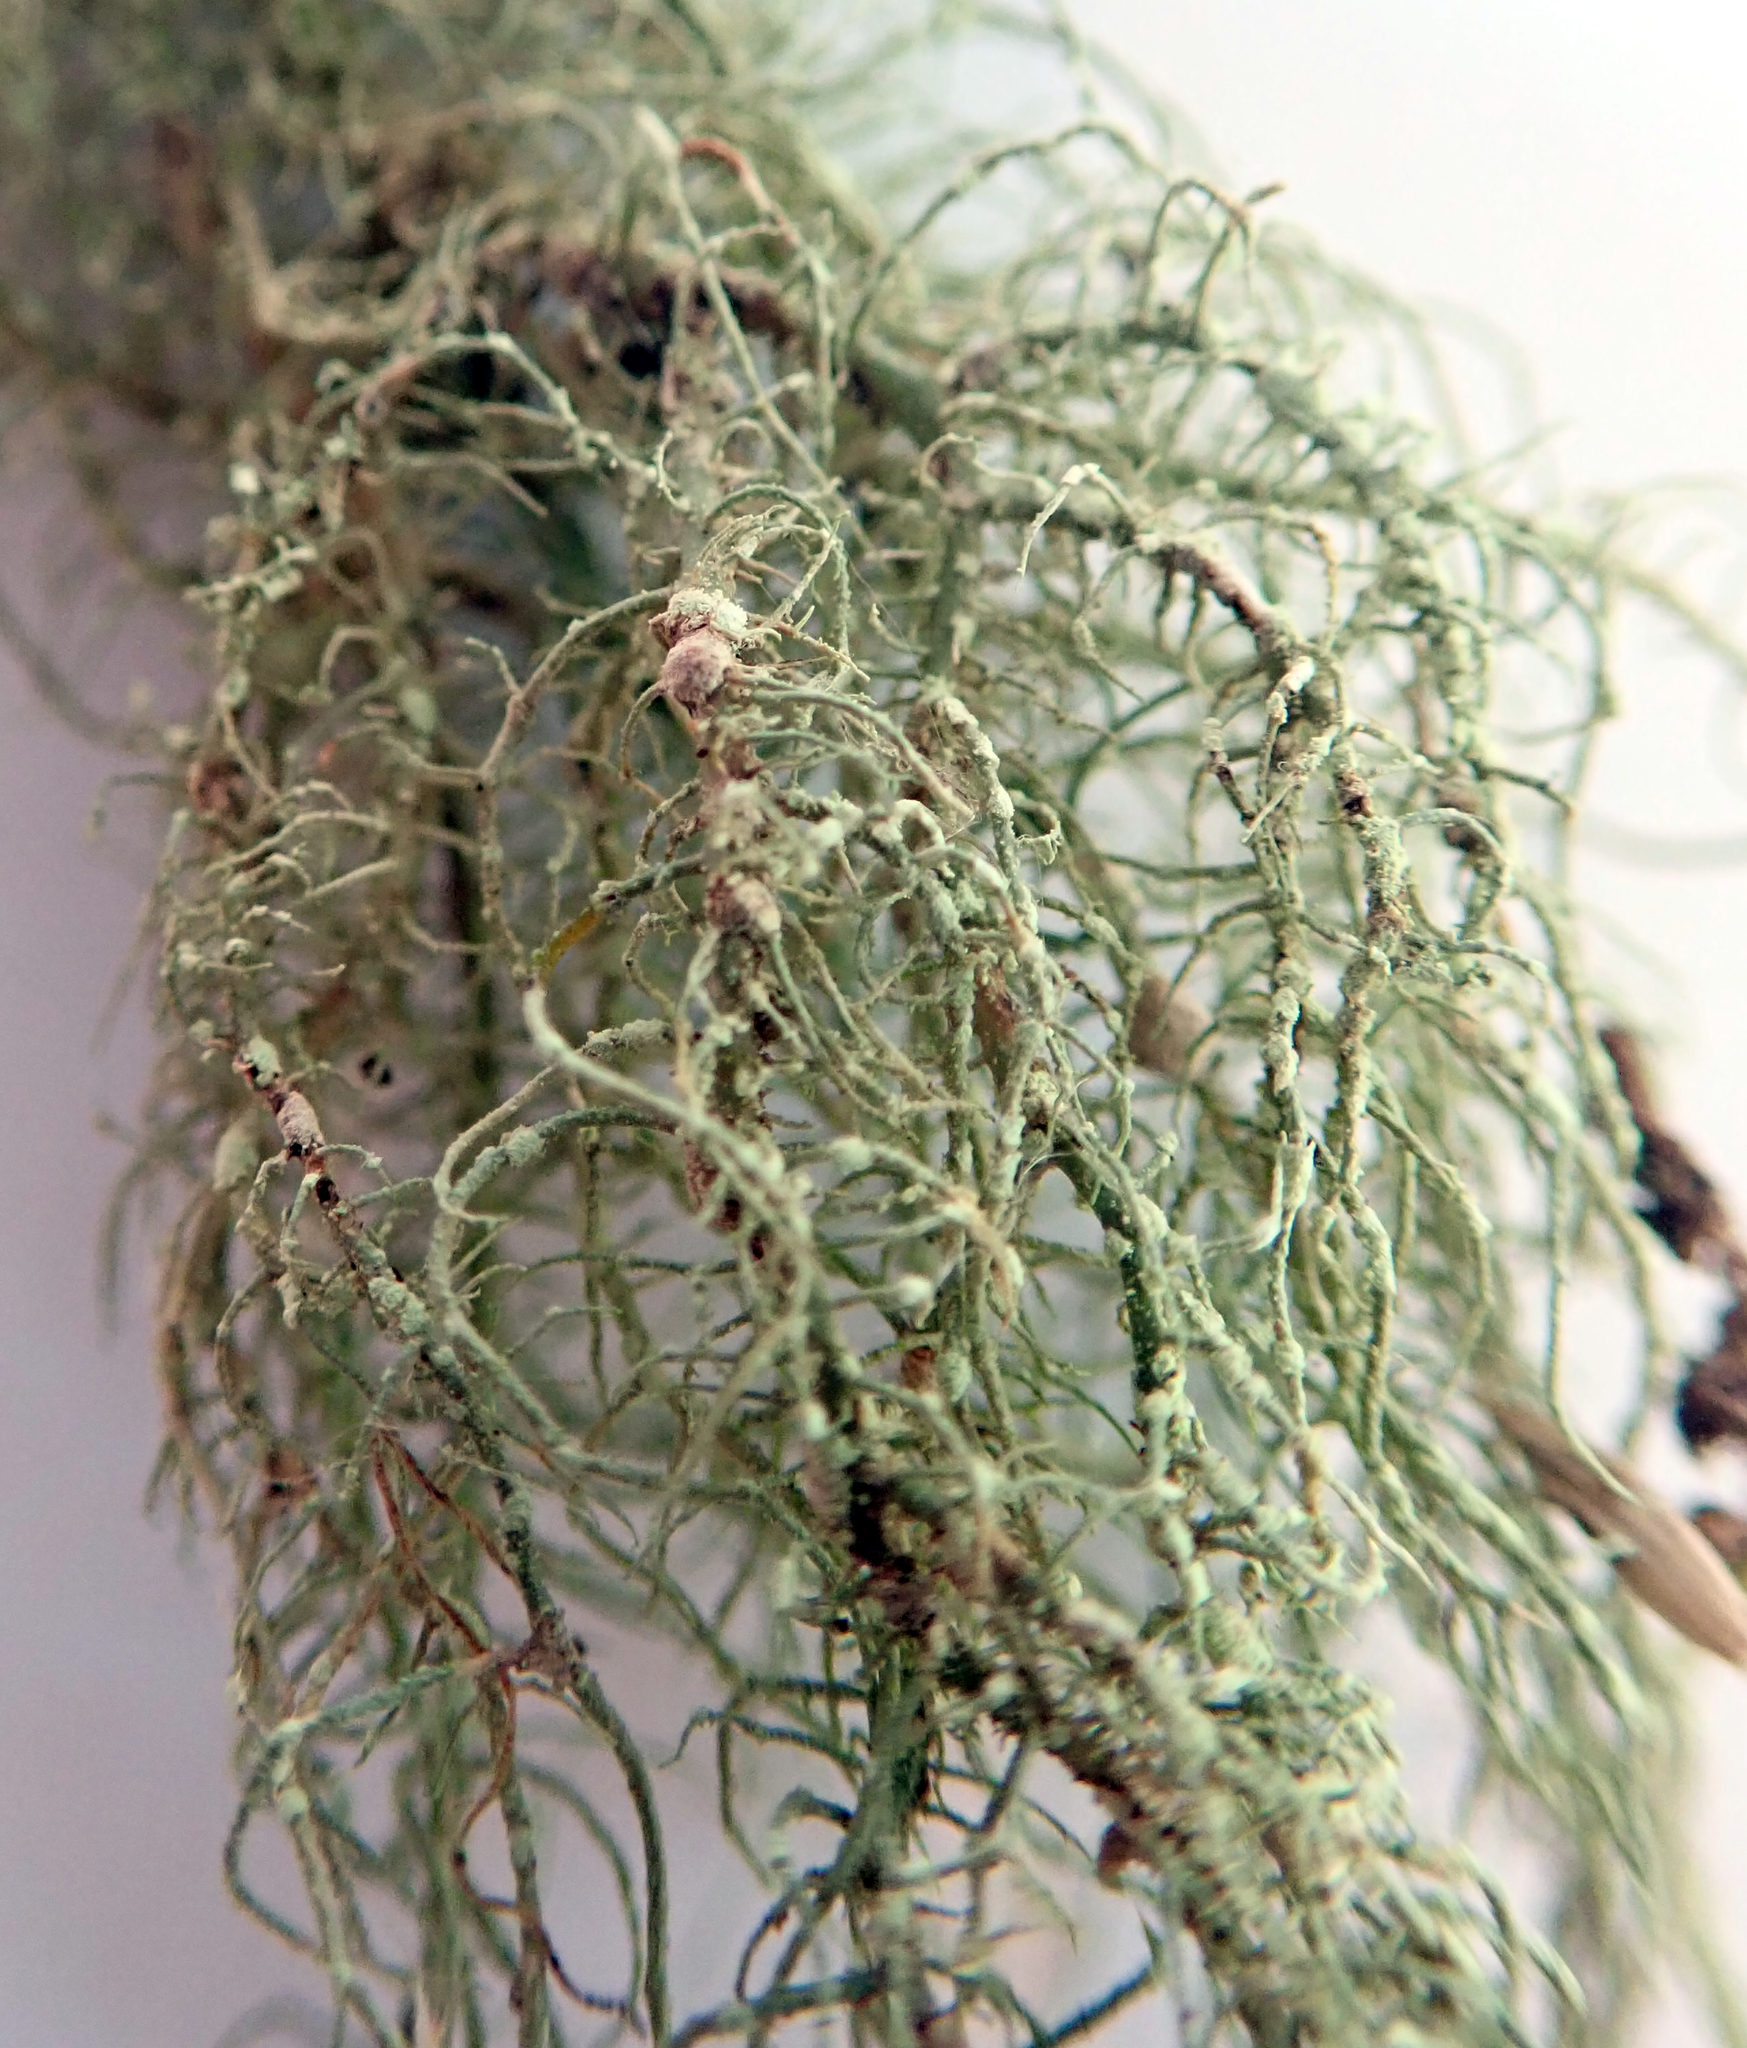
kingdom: Fungi
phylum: Ascomycota
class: Lecanoromycetes
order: Lecanorales
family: Parmeliaceae
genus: Usnea
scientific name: Usnea subeciliata
